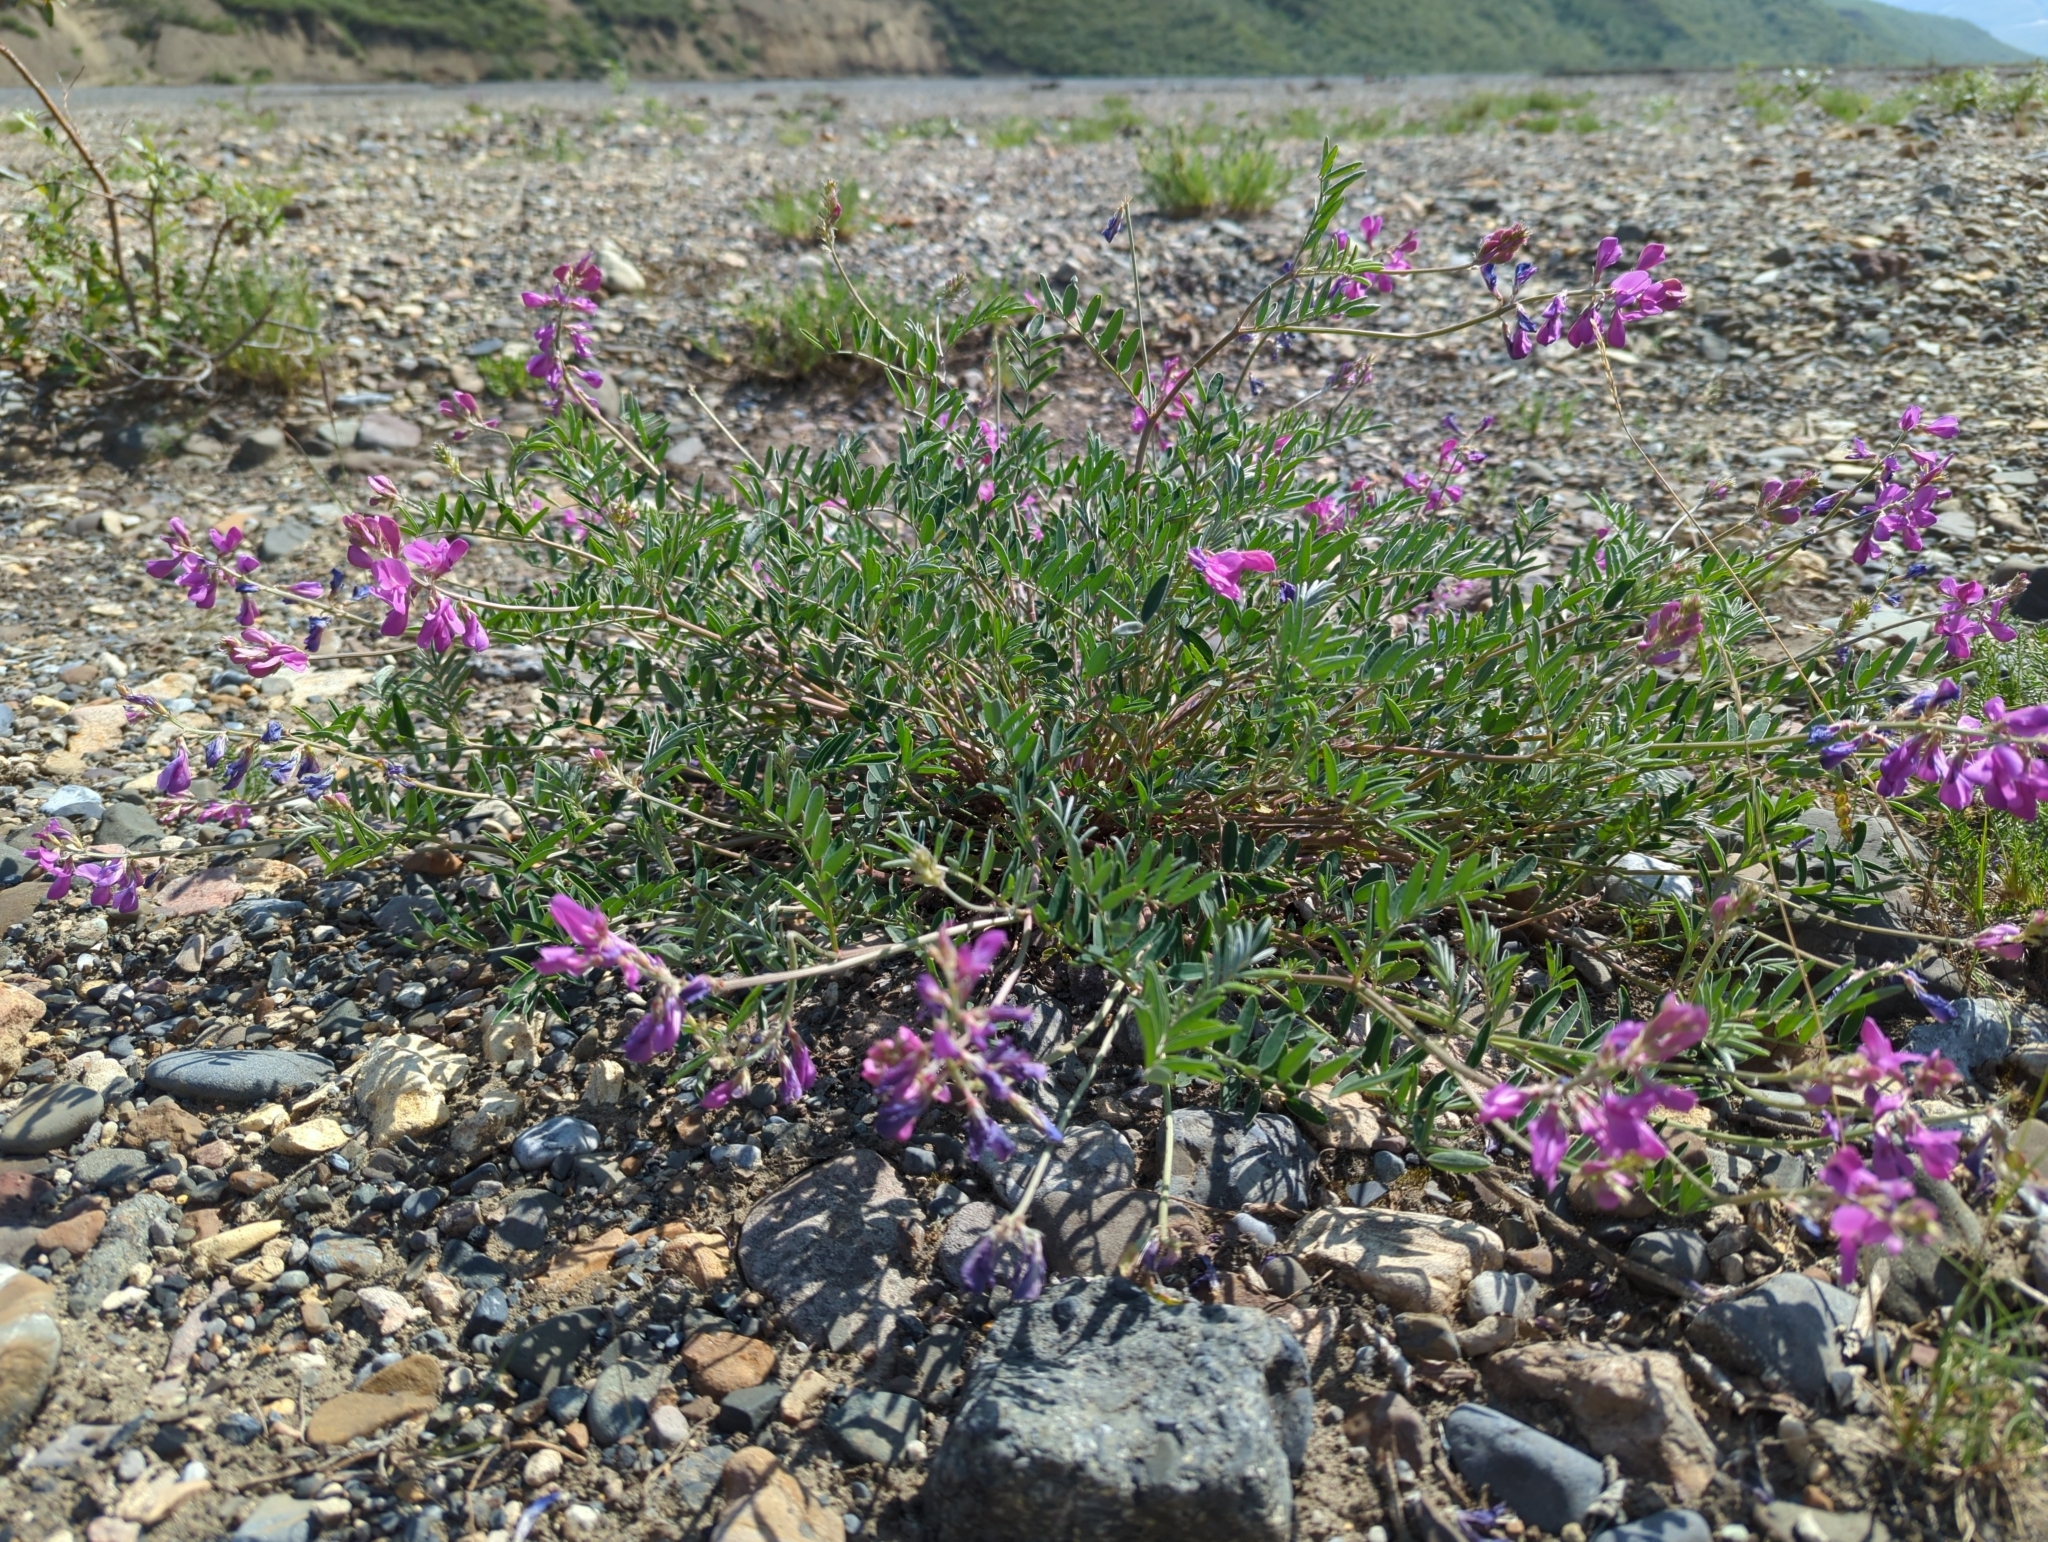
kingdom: Plantae
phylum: Tracheophyta
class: Magnoliopsida
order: Fabales
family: Fabaceae
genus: Hedysarum
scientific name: Hedysarum boreale
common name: Northern sweet-vetch
